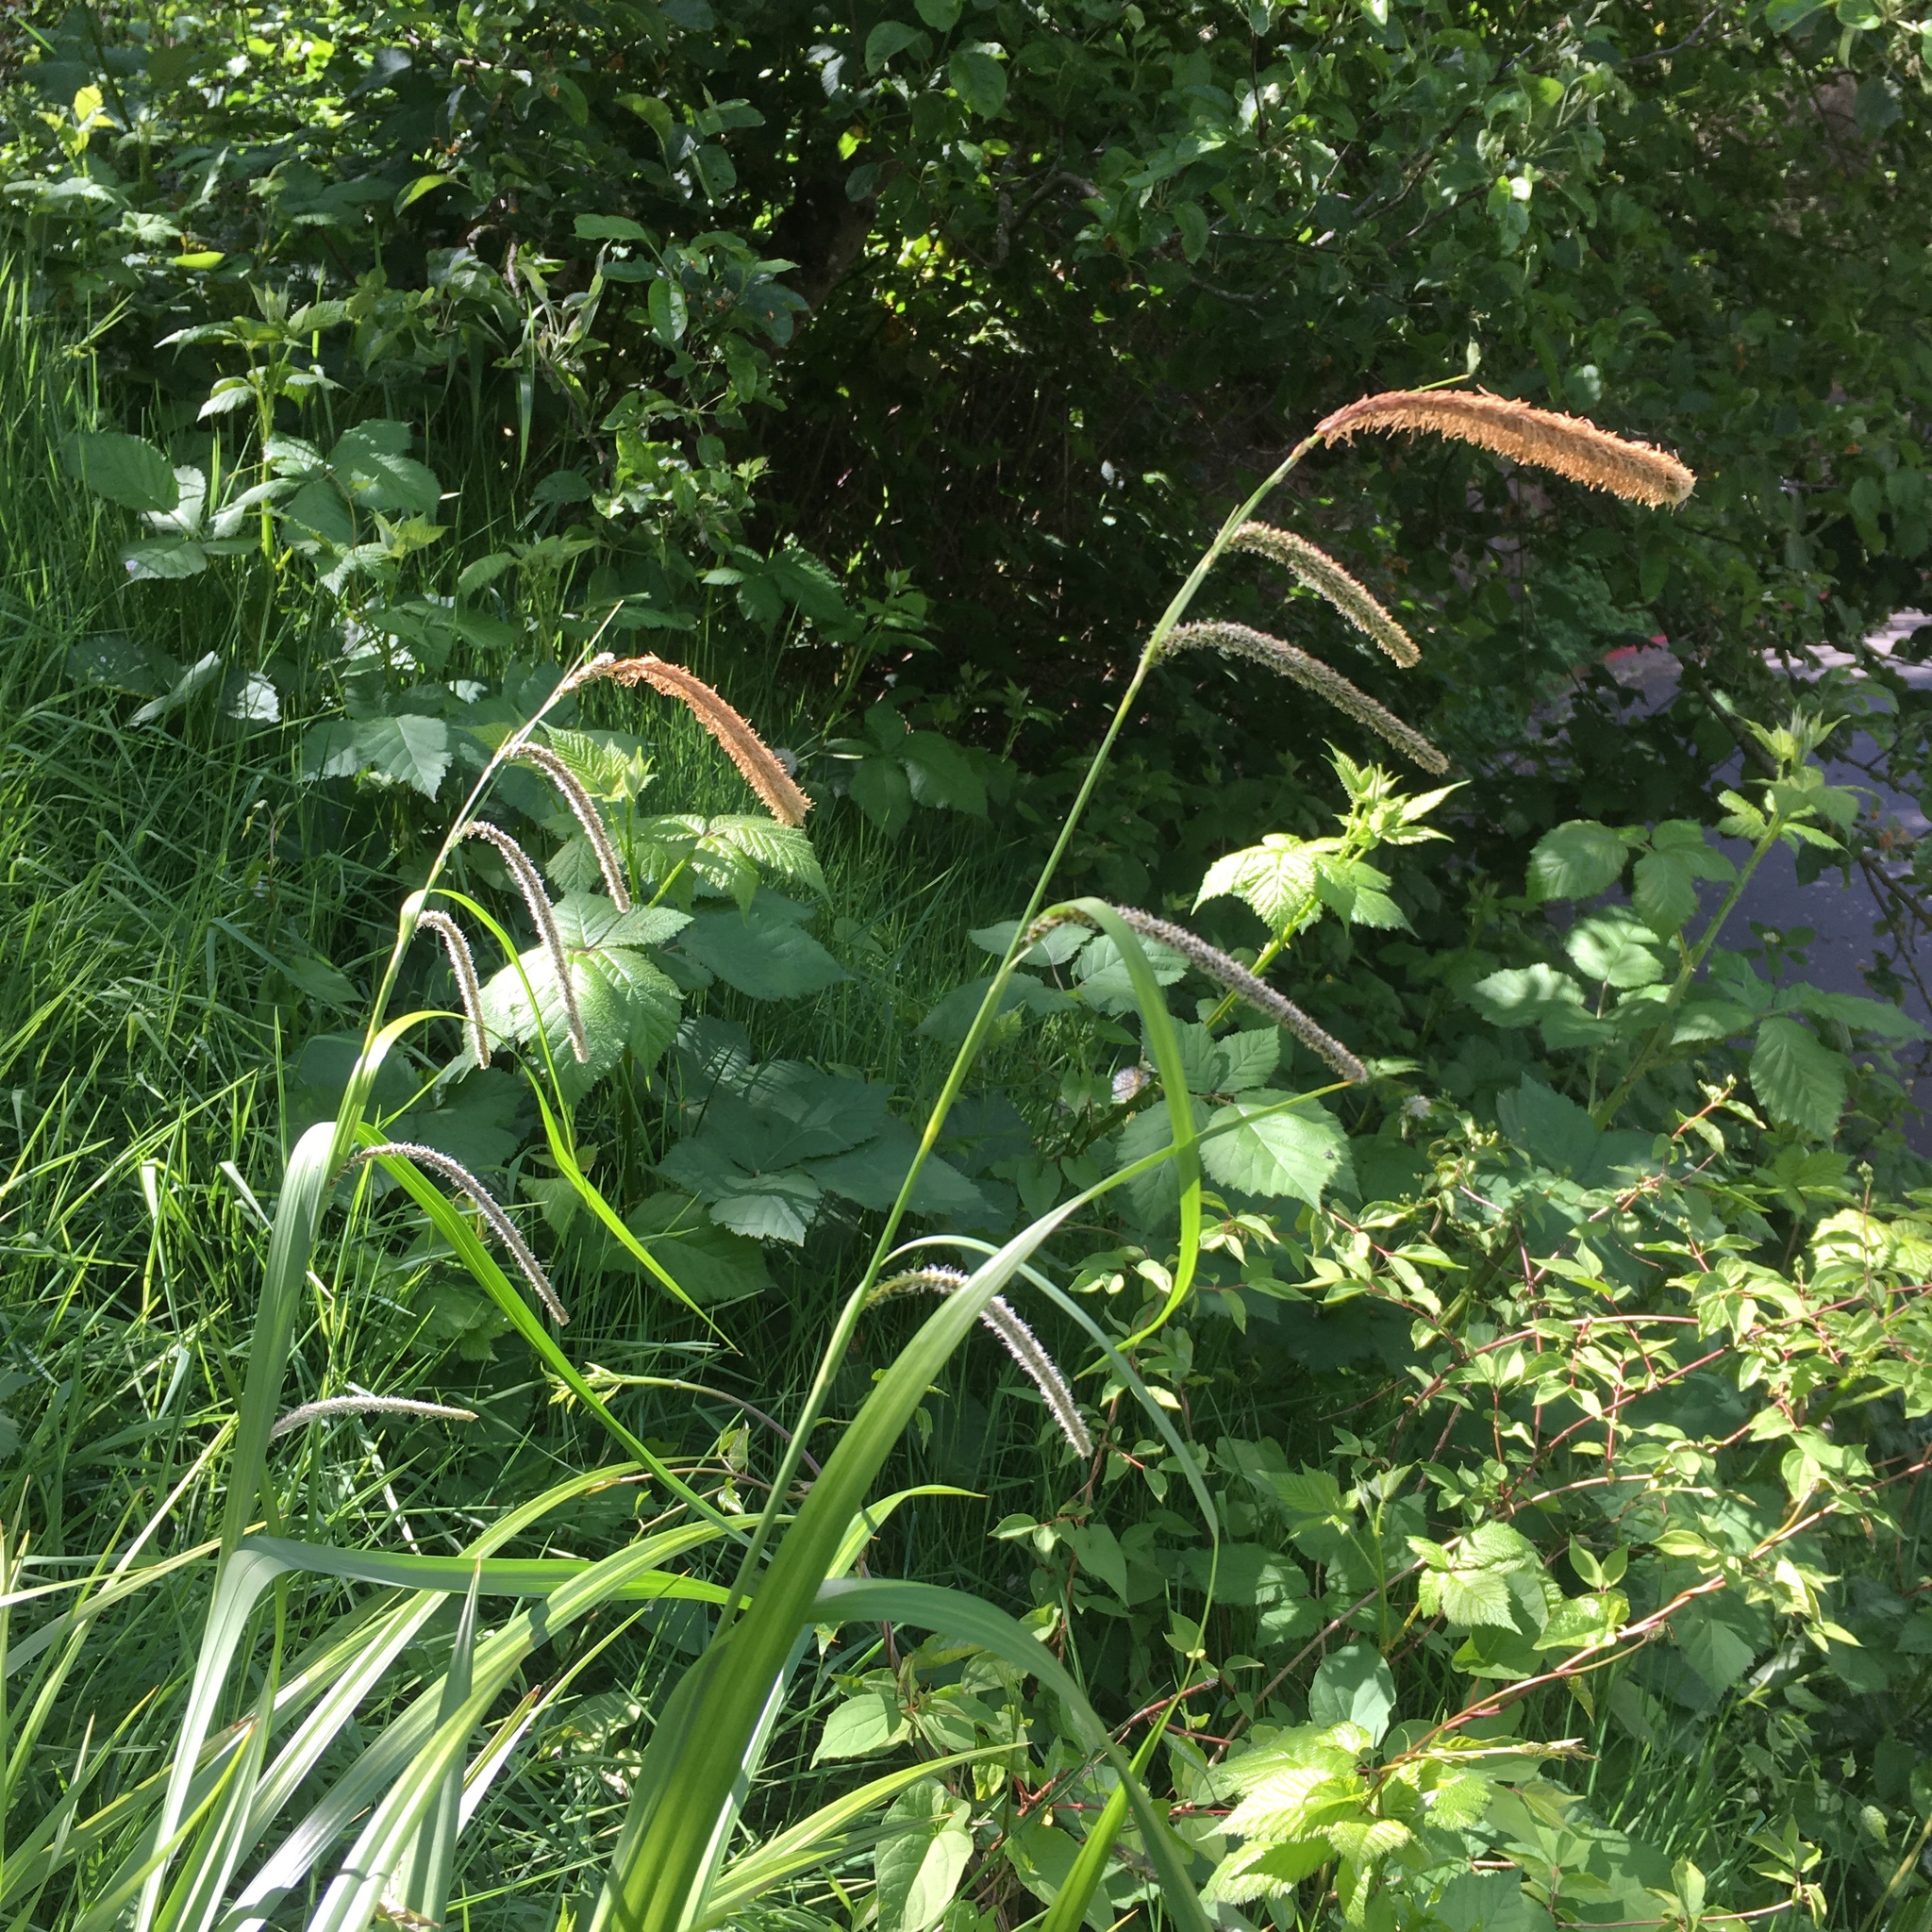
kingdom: Plantae
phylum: Tracheophyta
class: Liliopsida
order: Poales
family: Cyperaceae
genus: Carex
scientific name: Carex pendula
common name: Pendulous sedge
